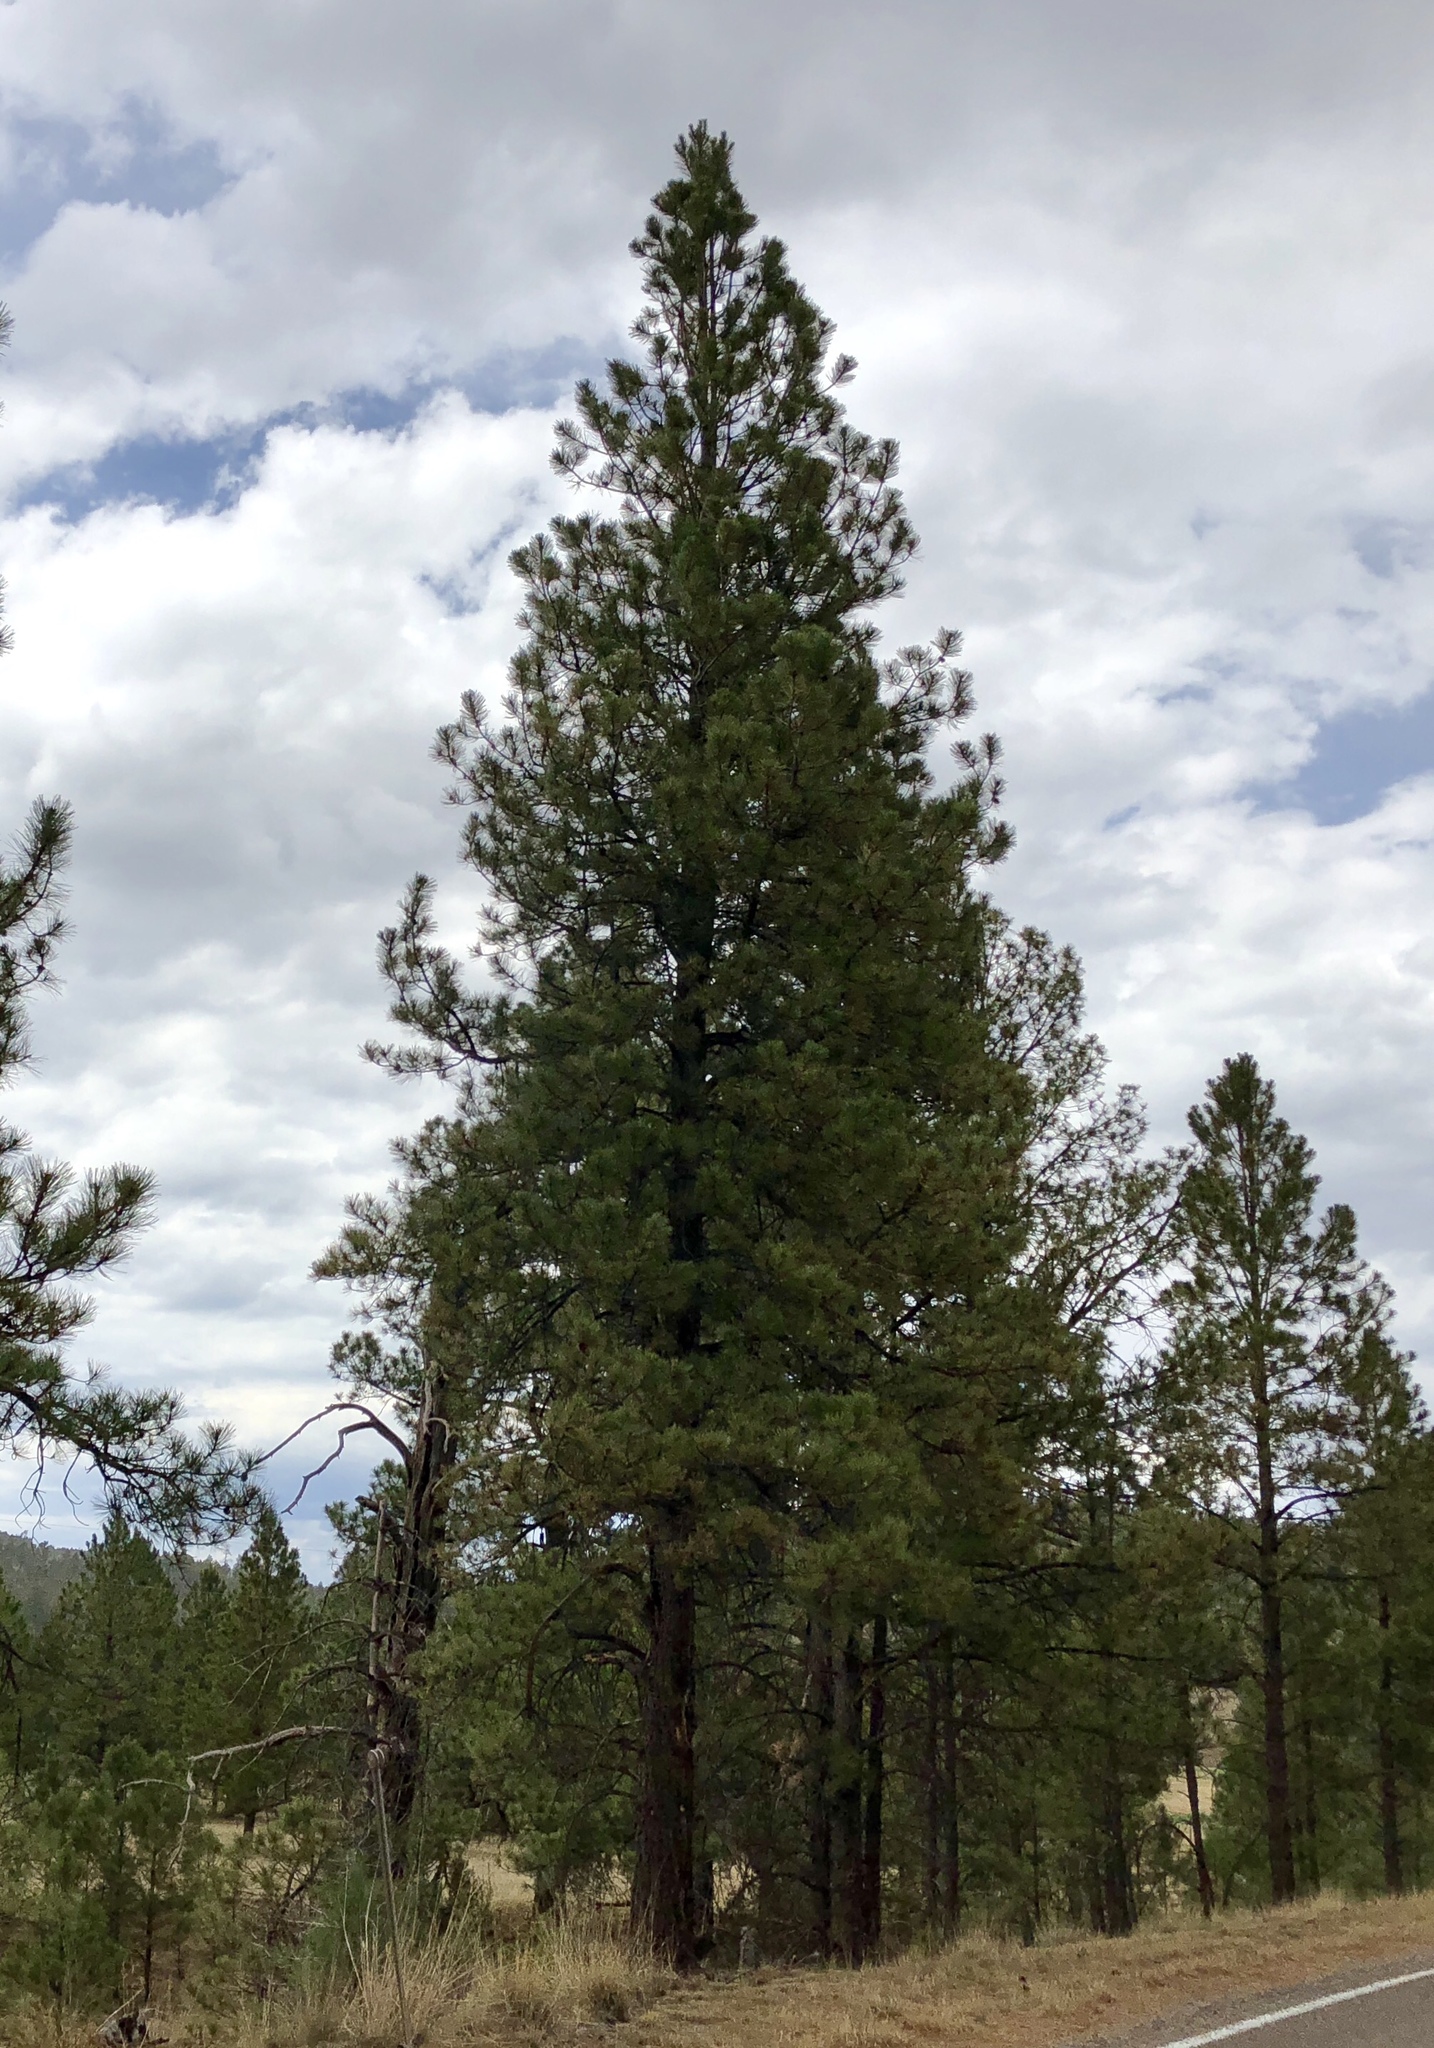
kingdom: Plantae
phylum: Tracheophyta
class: Pinopsida
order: Pinales
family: Pinaceae
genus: Pinus
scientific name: Pinus ponderosa
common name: Western yellow-pine
